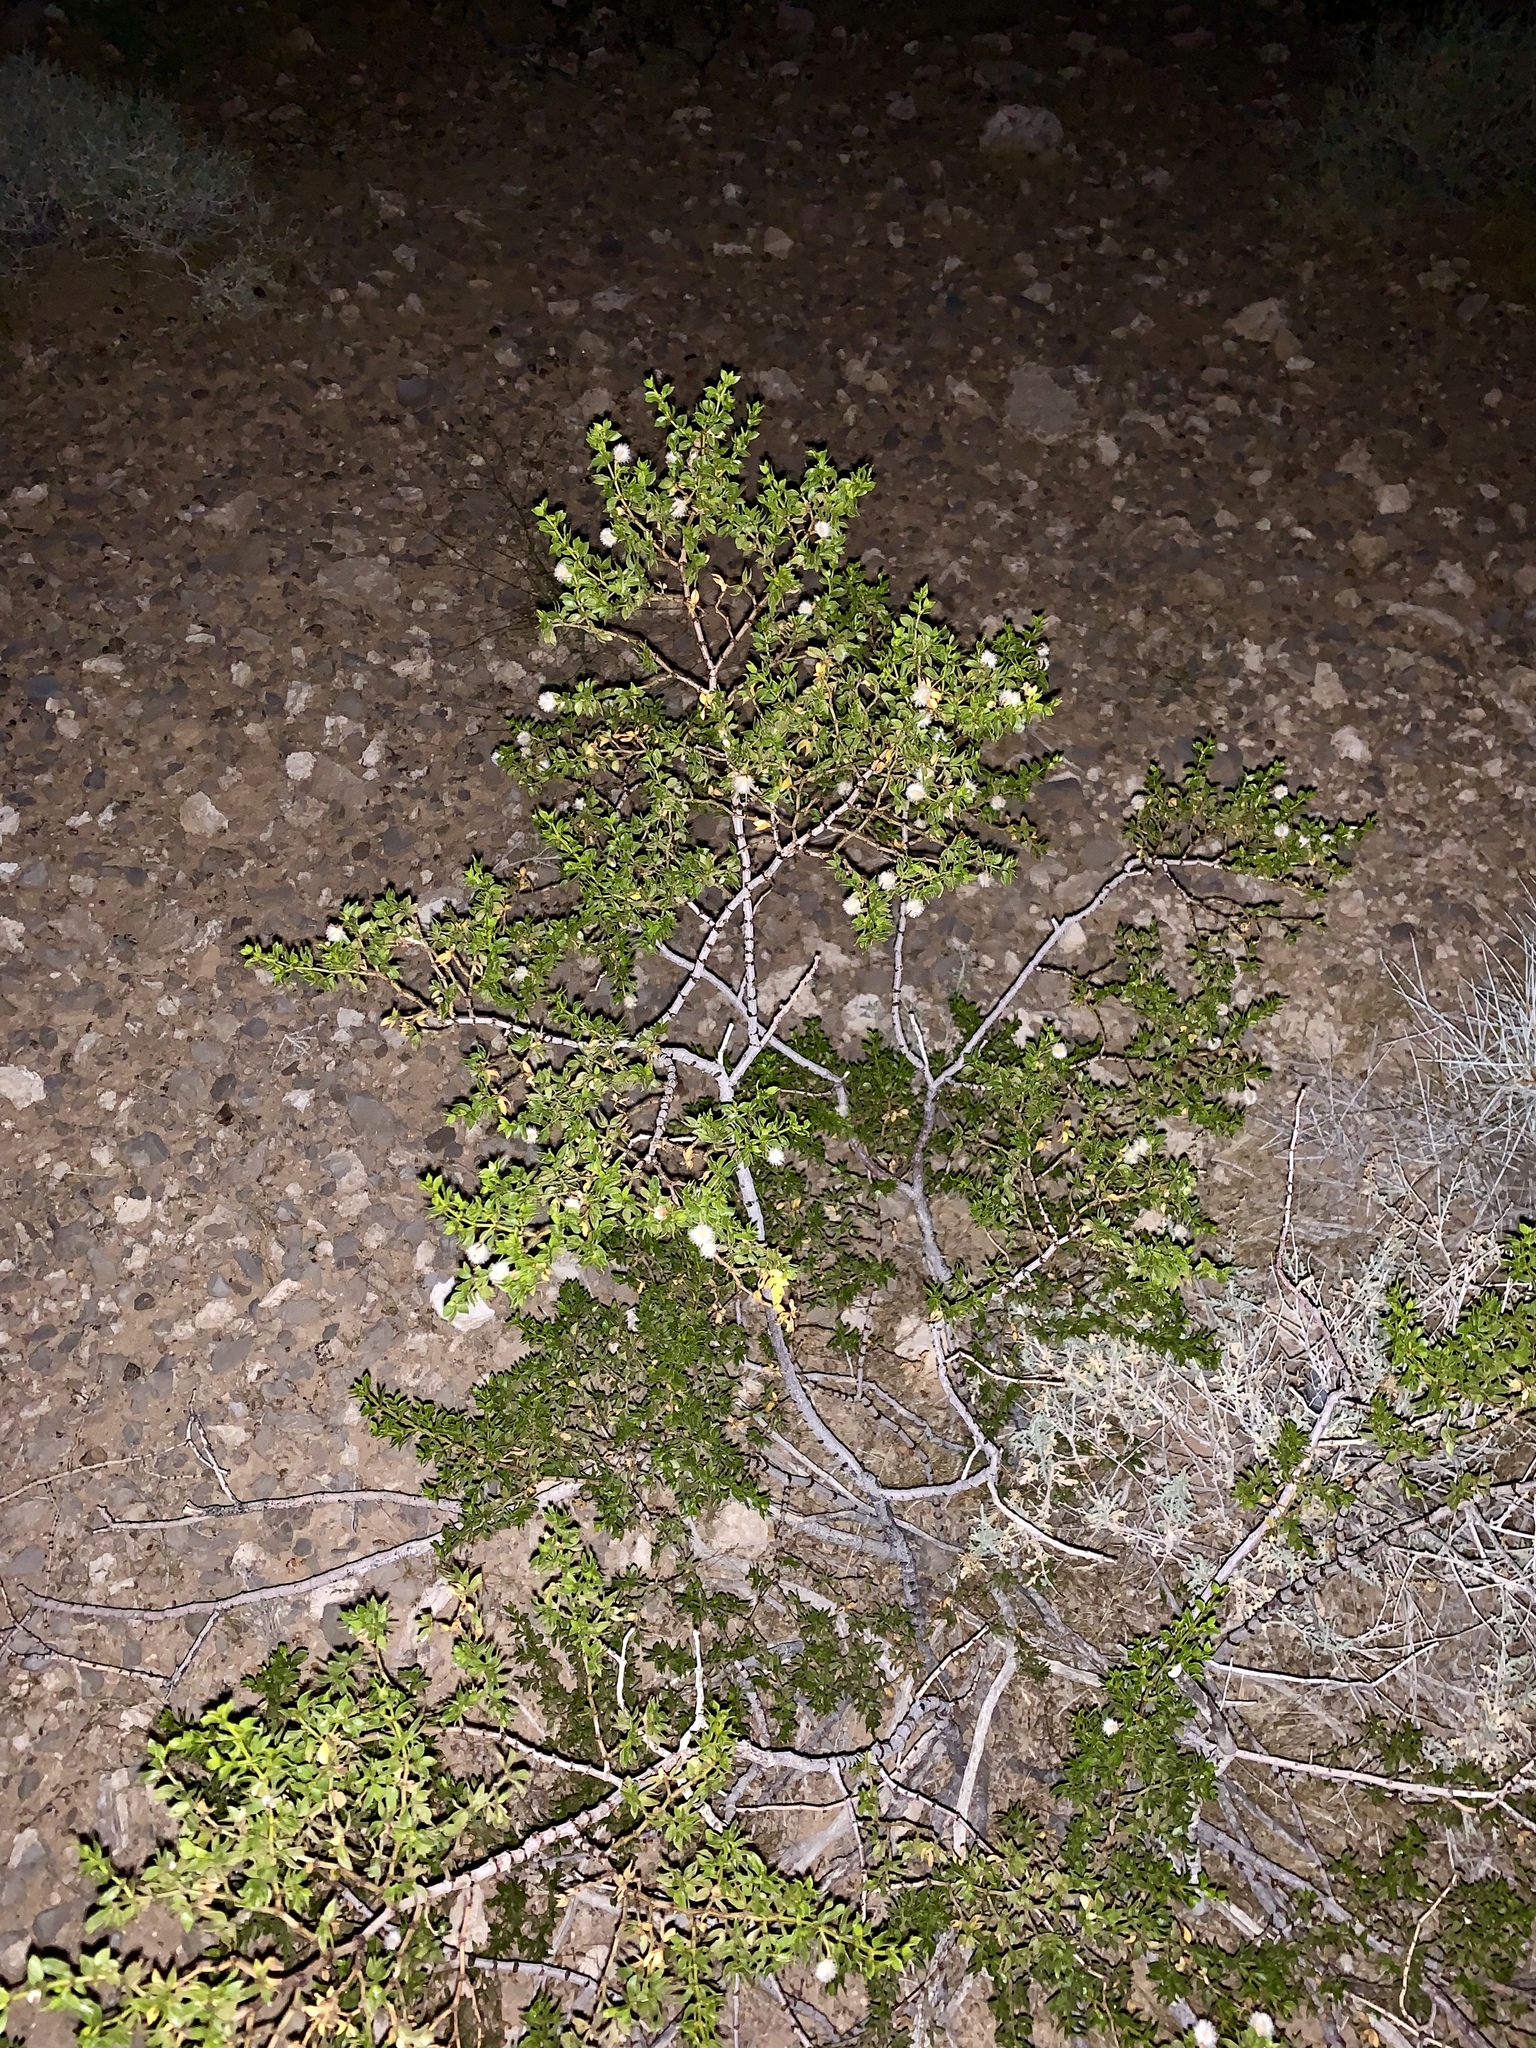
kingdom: Plantae
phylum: Tracheophyta
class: Magnoliopsida
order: Zygophyllales
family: Zygophyllaceae
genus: Larrea
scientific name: Larrea tridentata
